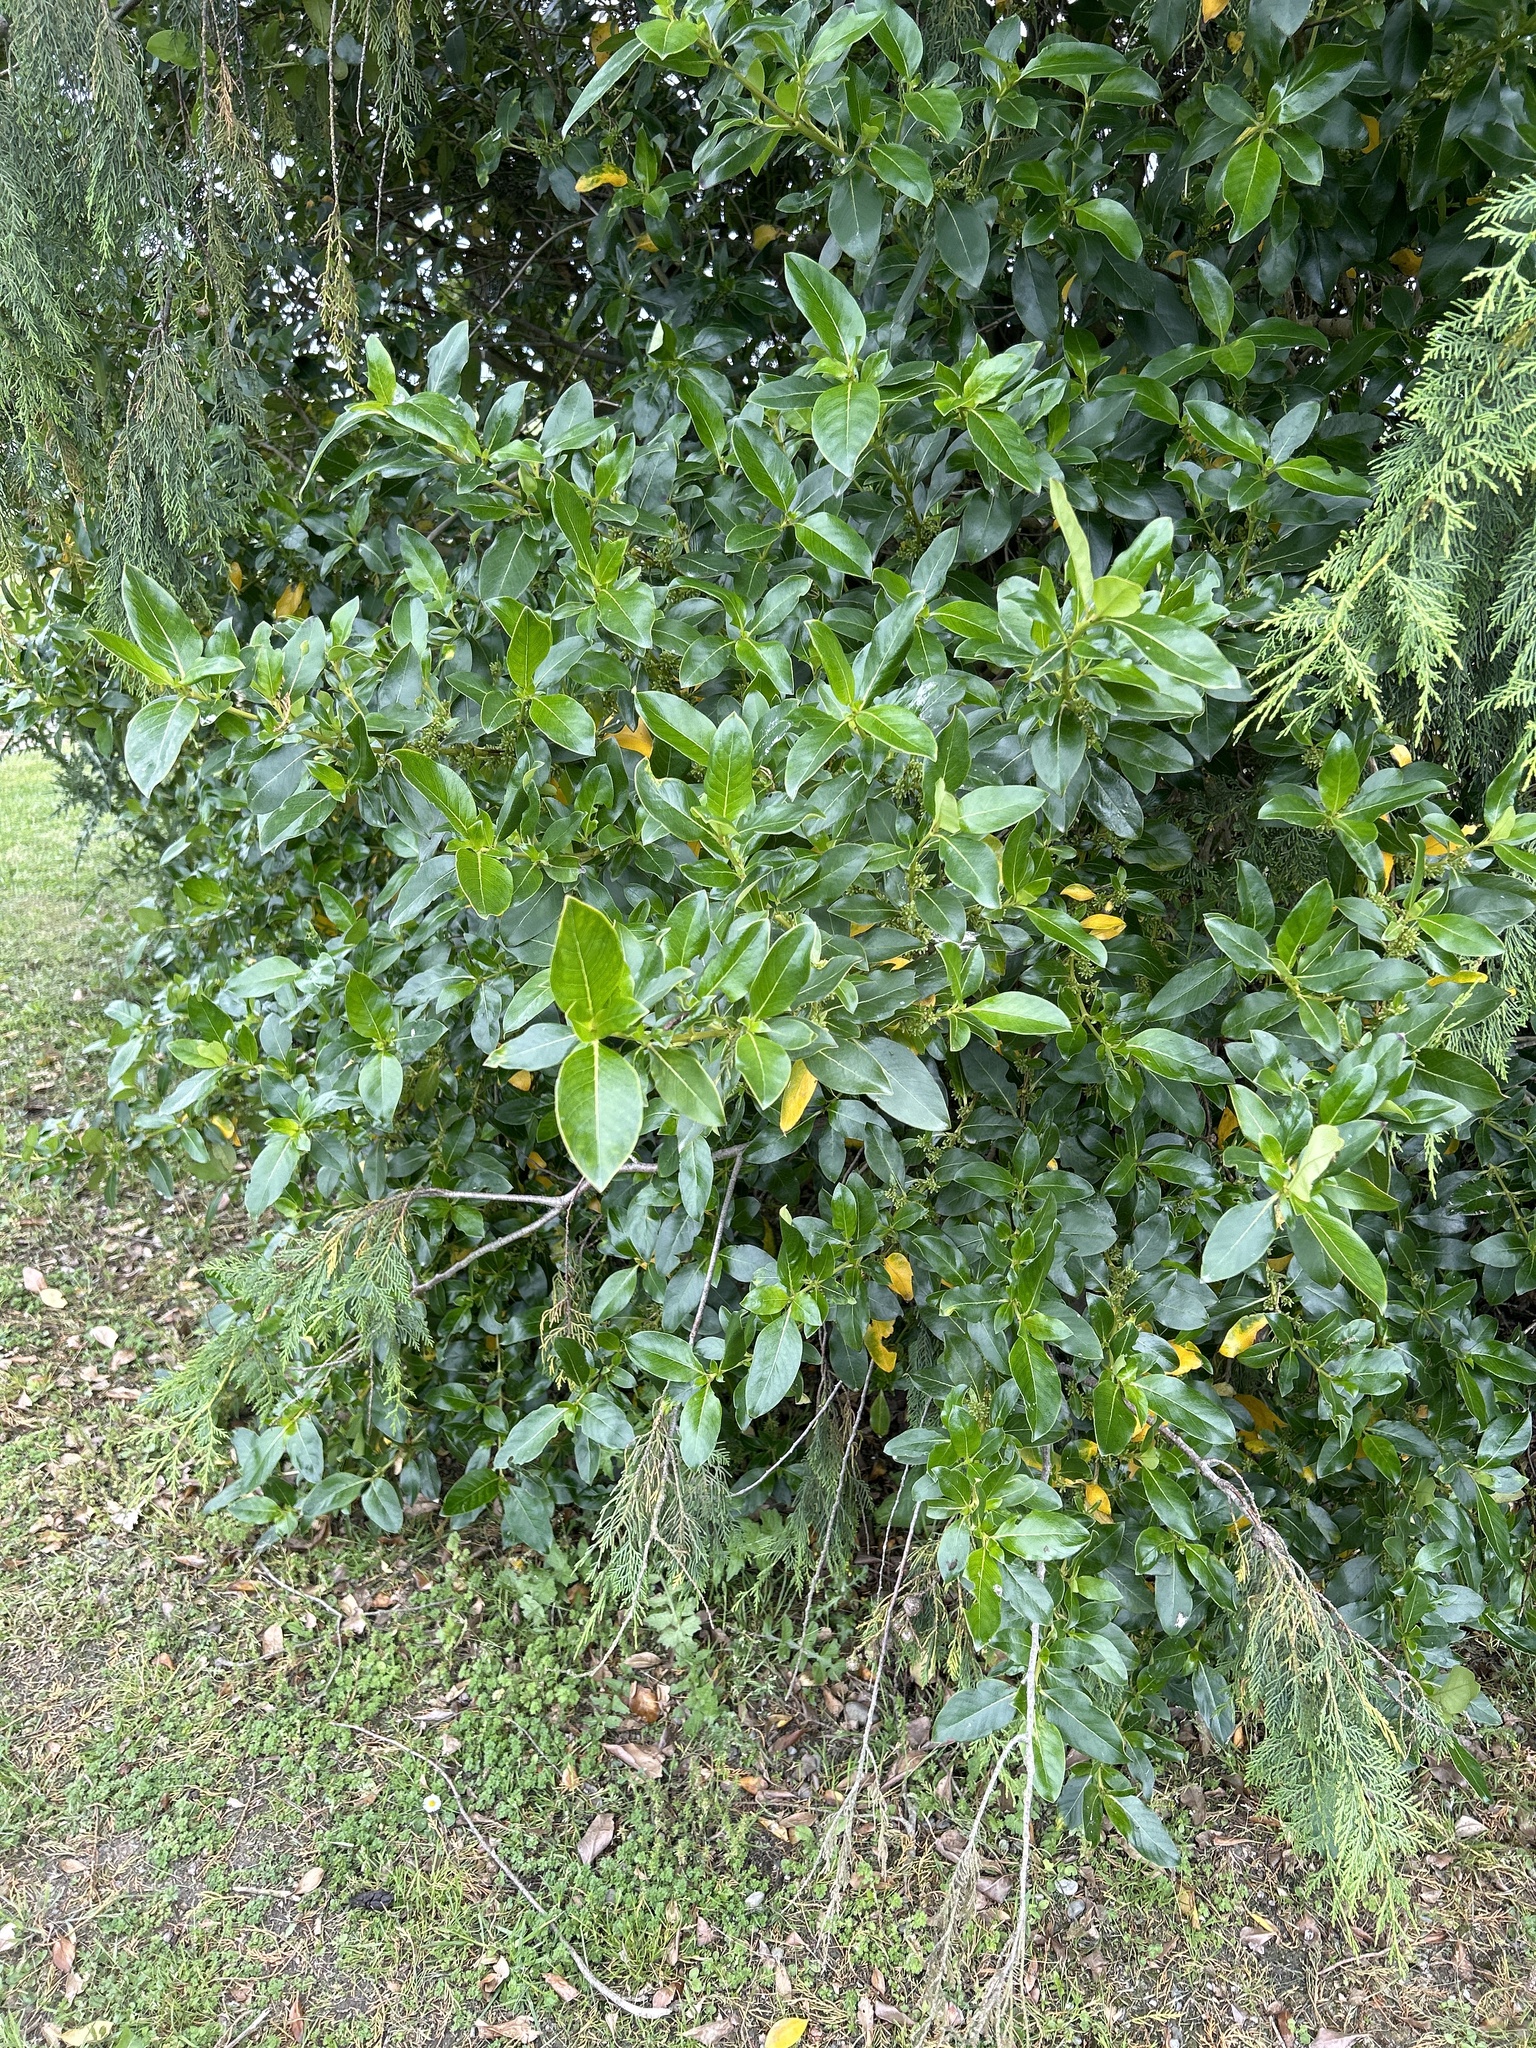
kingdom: Plantae
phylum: Tracheophyta
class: Magnoliopsida
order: Gentianales
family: Rubiaceae
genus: Coprosma
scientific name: Coprosma robusta
